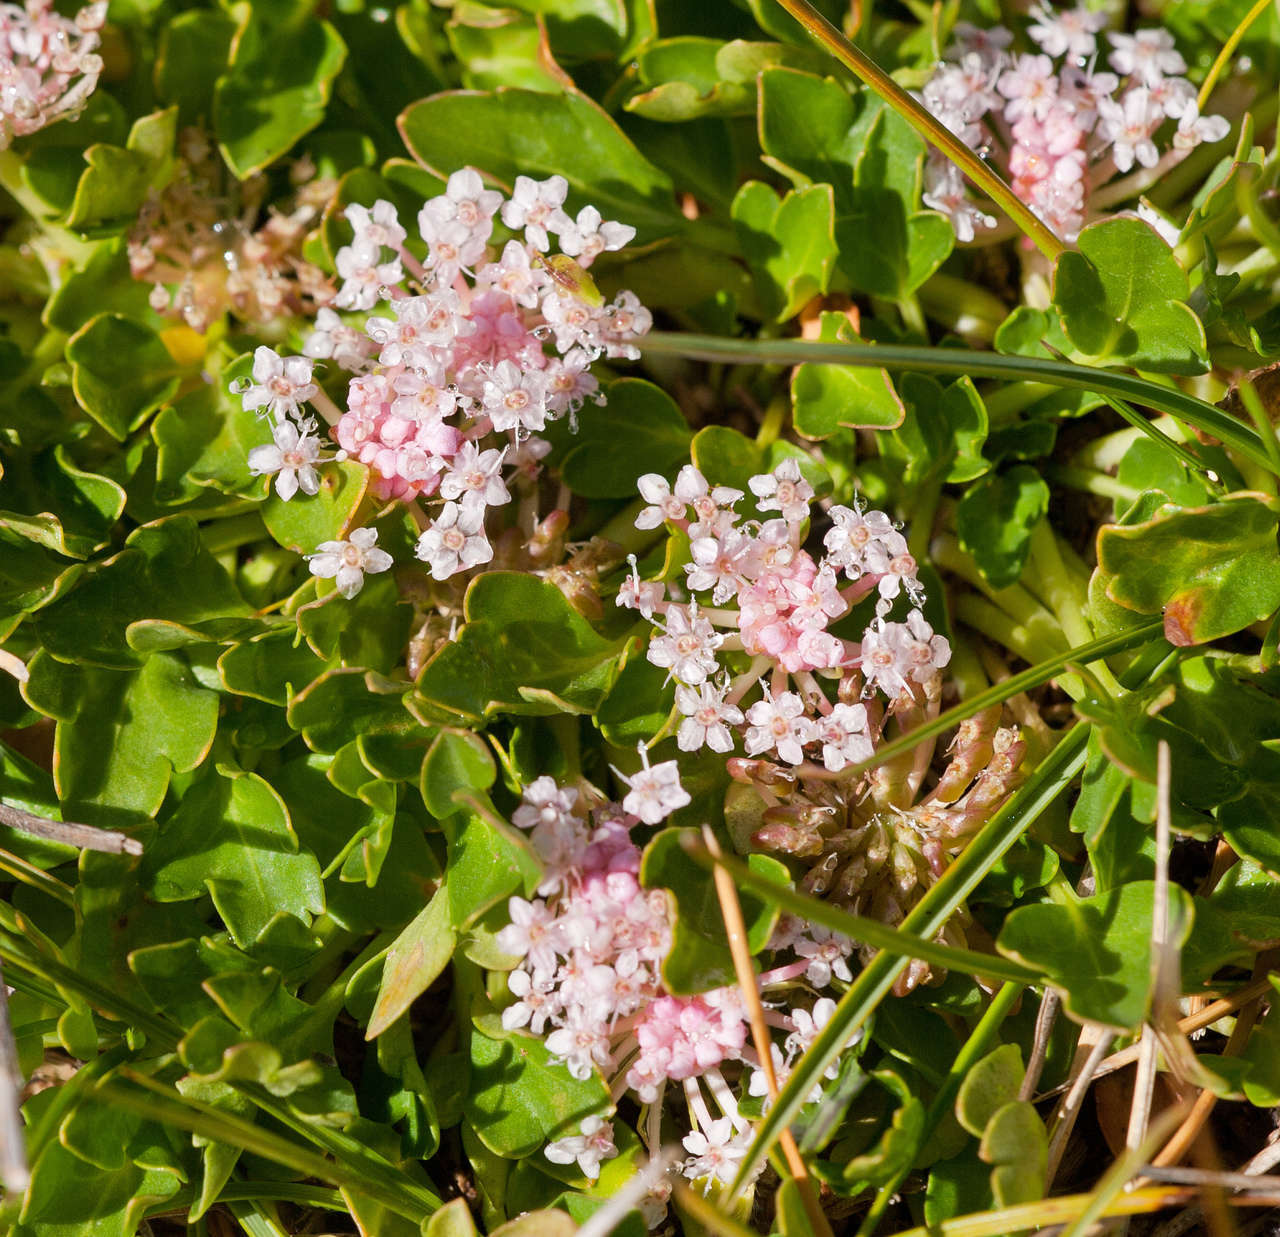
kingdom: Plantae
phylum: Tracheophyta
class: Magnoliopsida
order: Apiales
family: Araliaceae
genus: Trachymene
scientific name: Trachymene humilis
